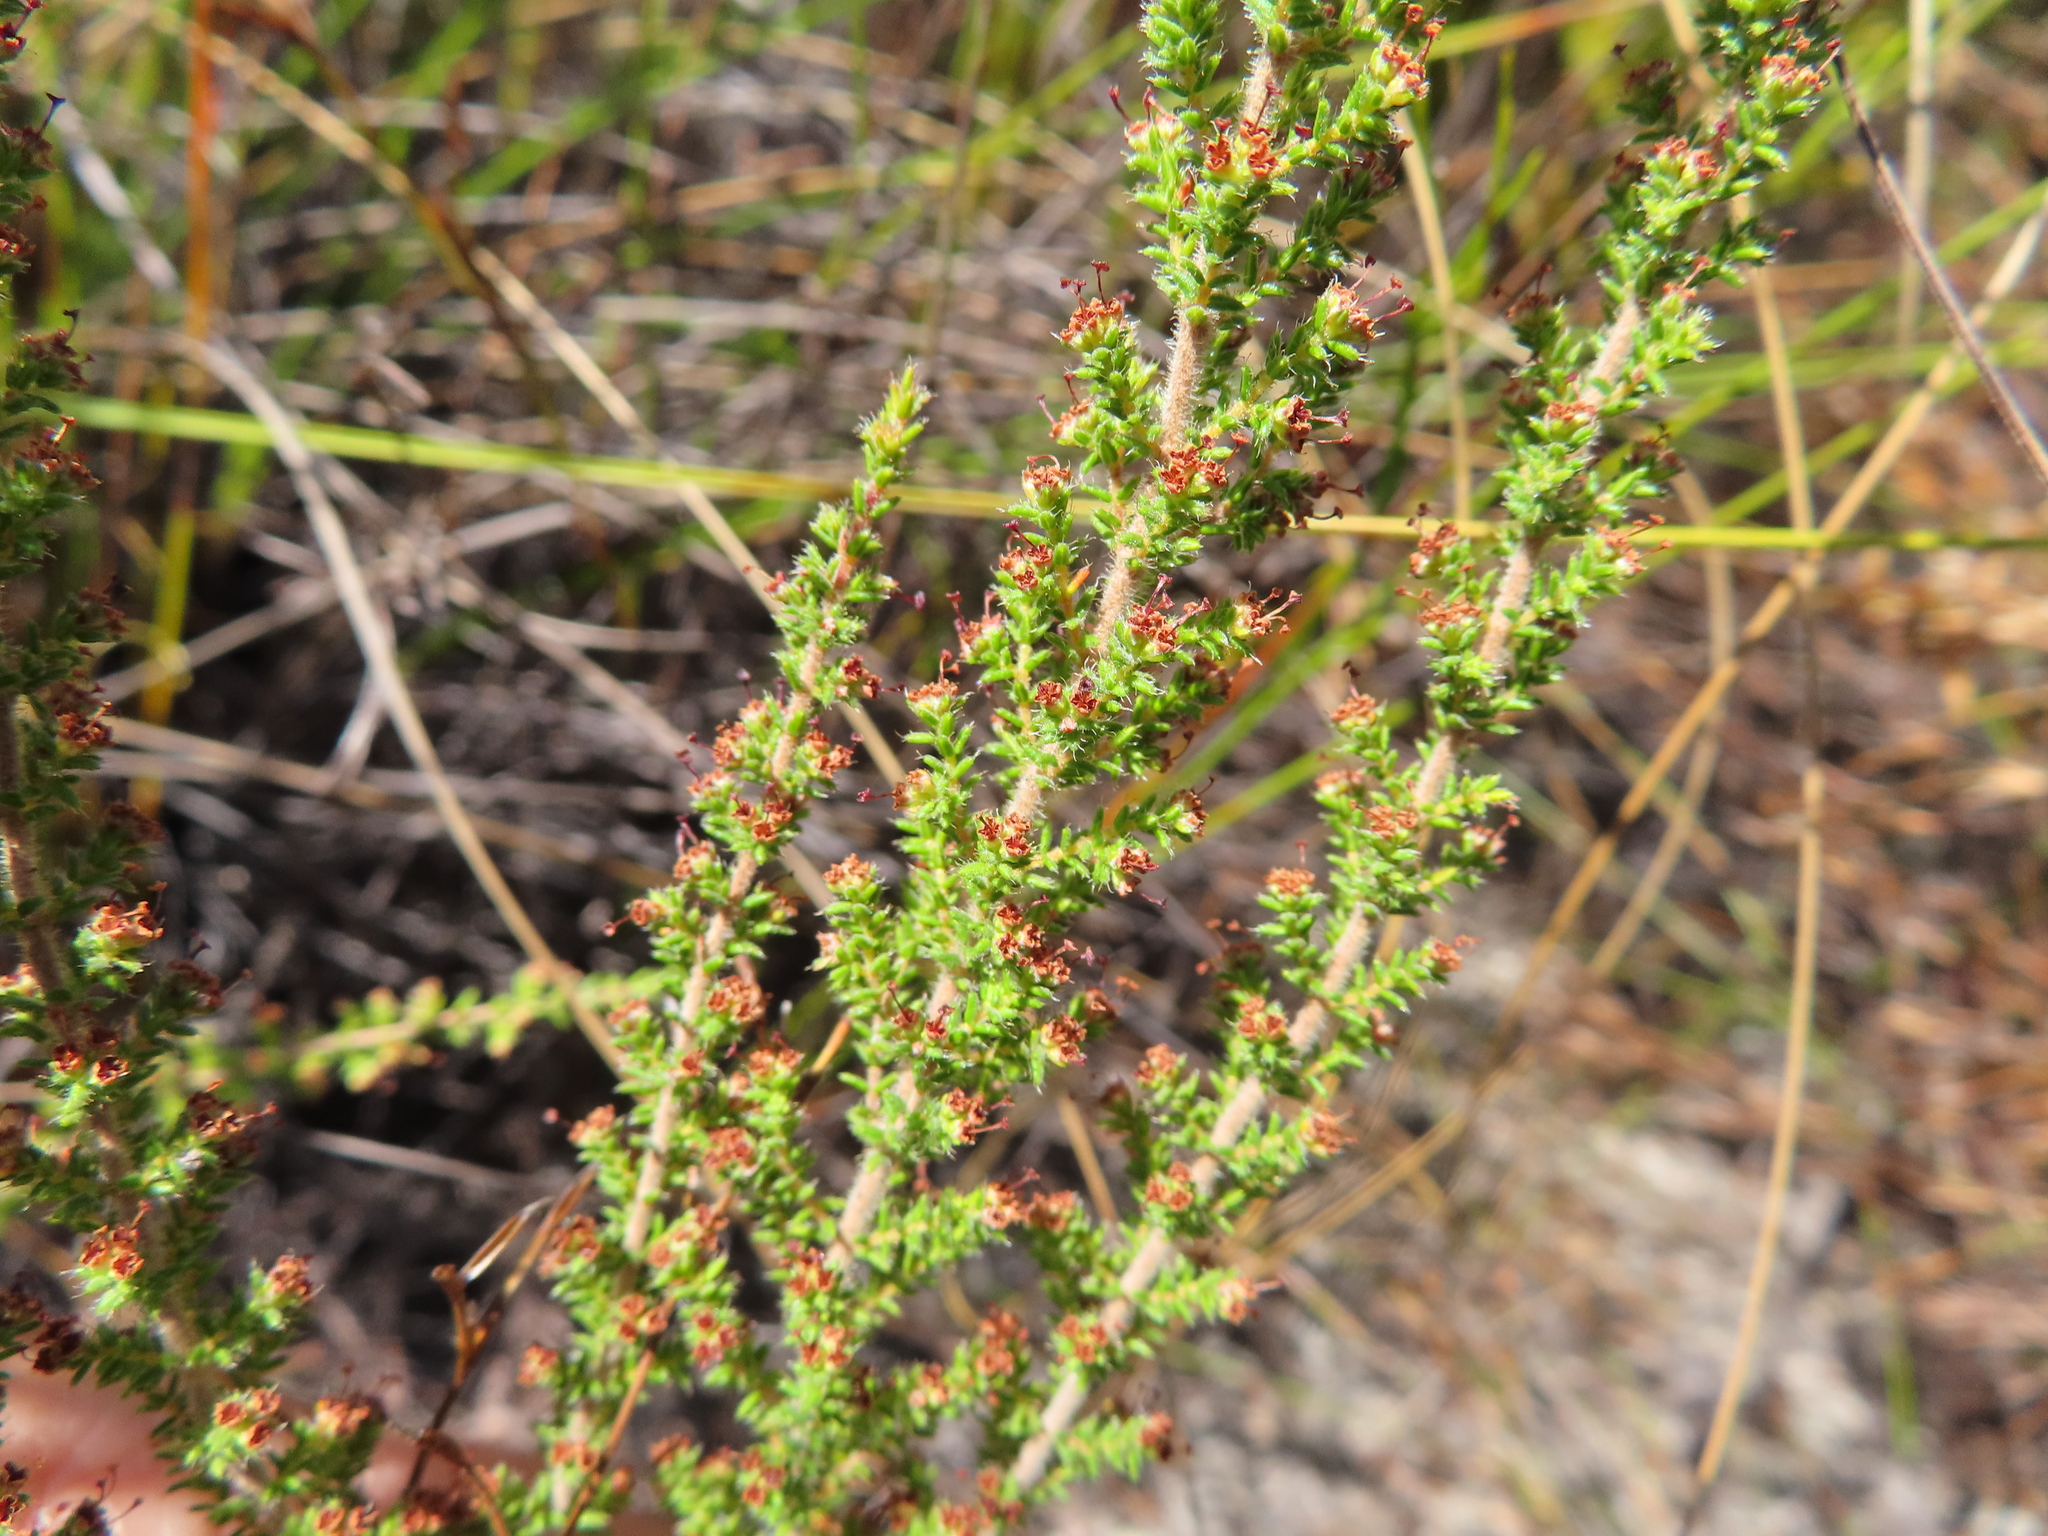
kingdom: Plantae
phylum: Tracheophyta
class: Magnoliopsida
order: Ericales
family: Ericaceae
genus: Erica
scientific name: Erica exleeana
